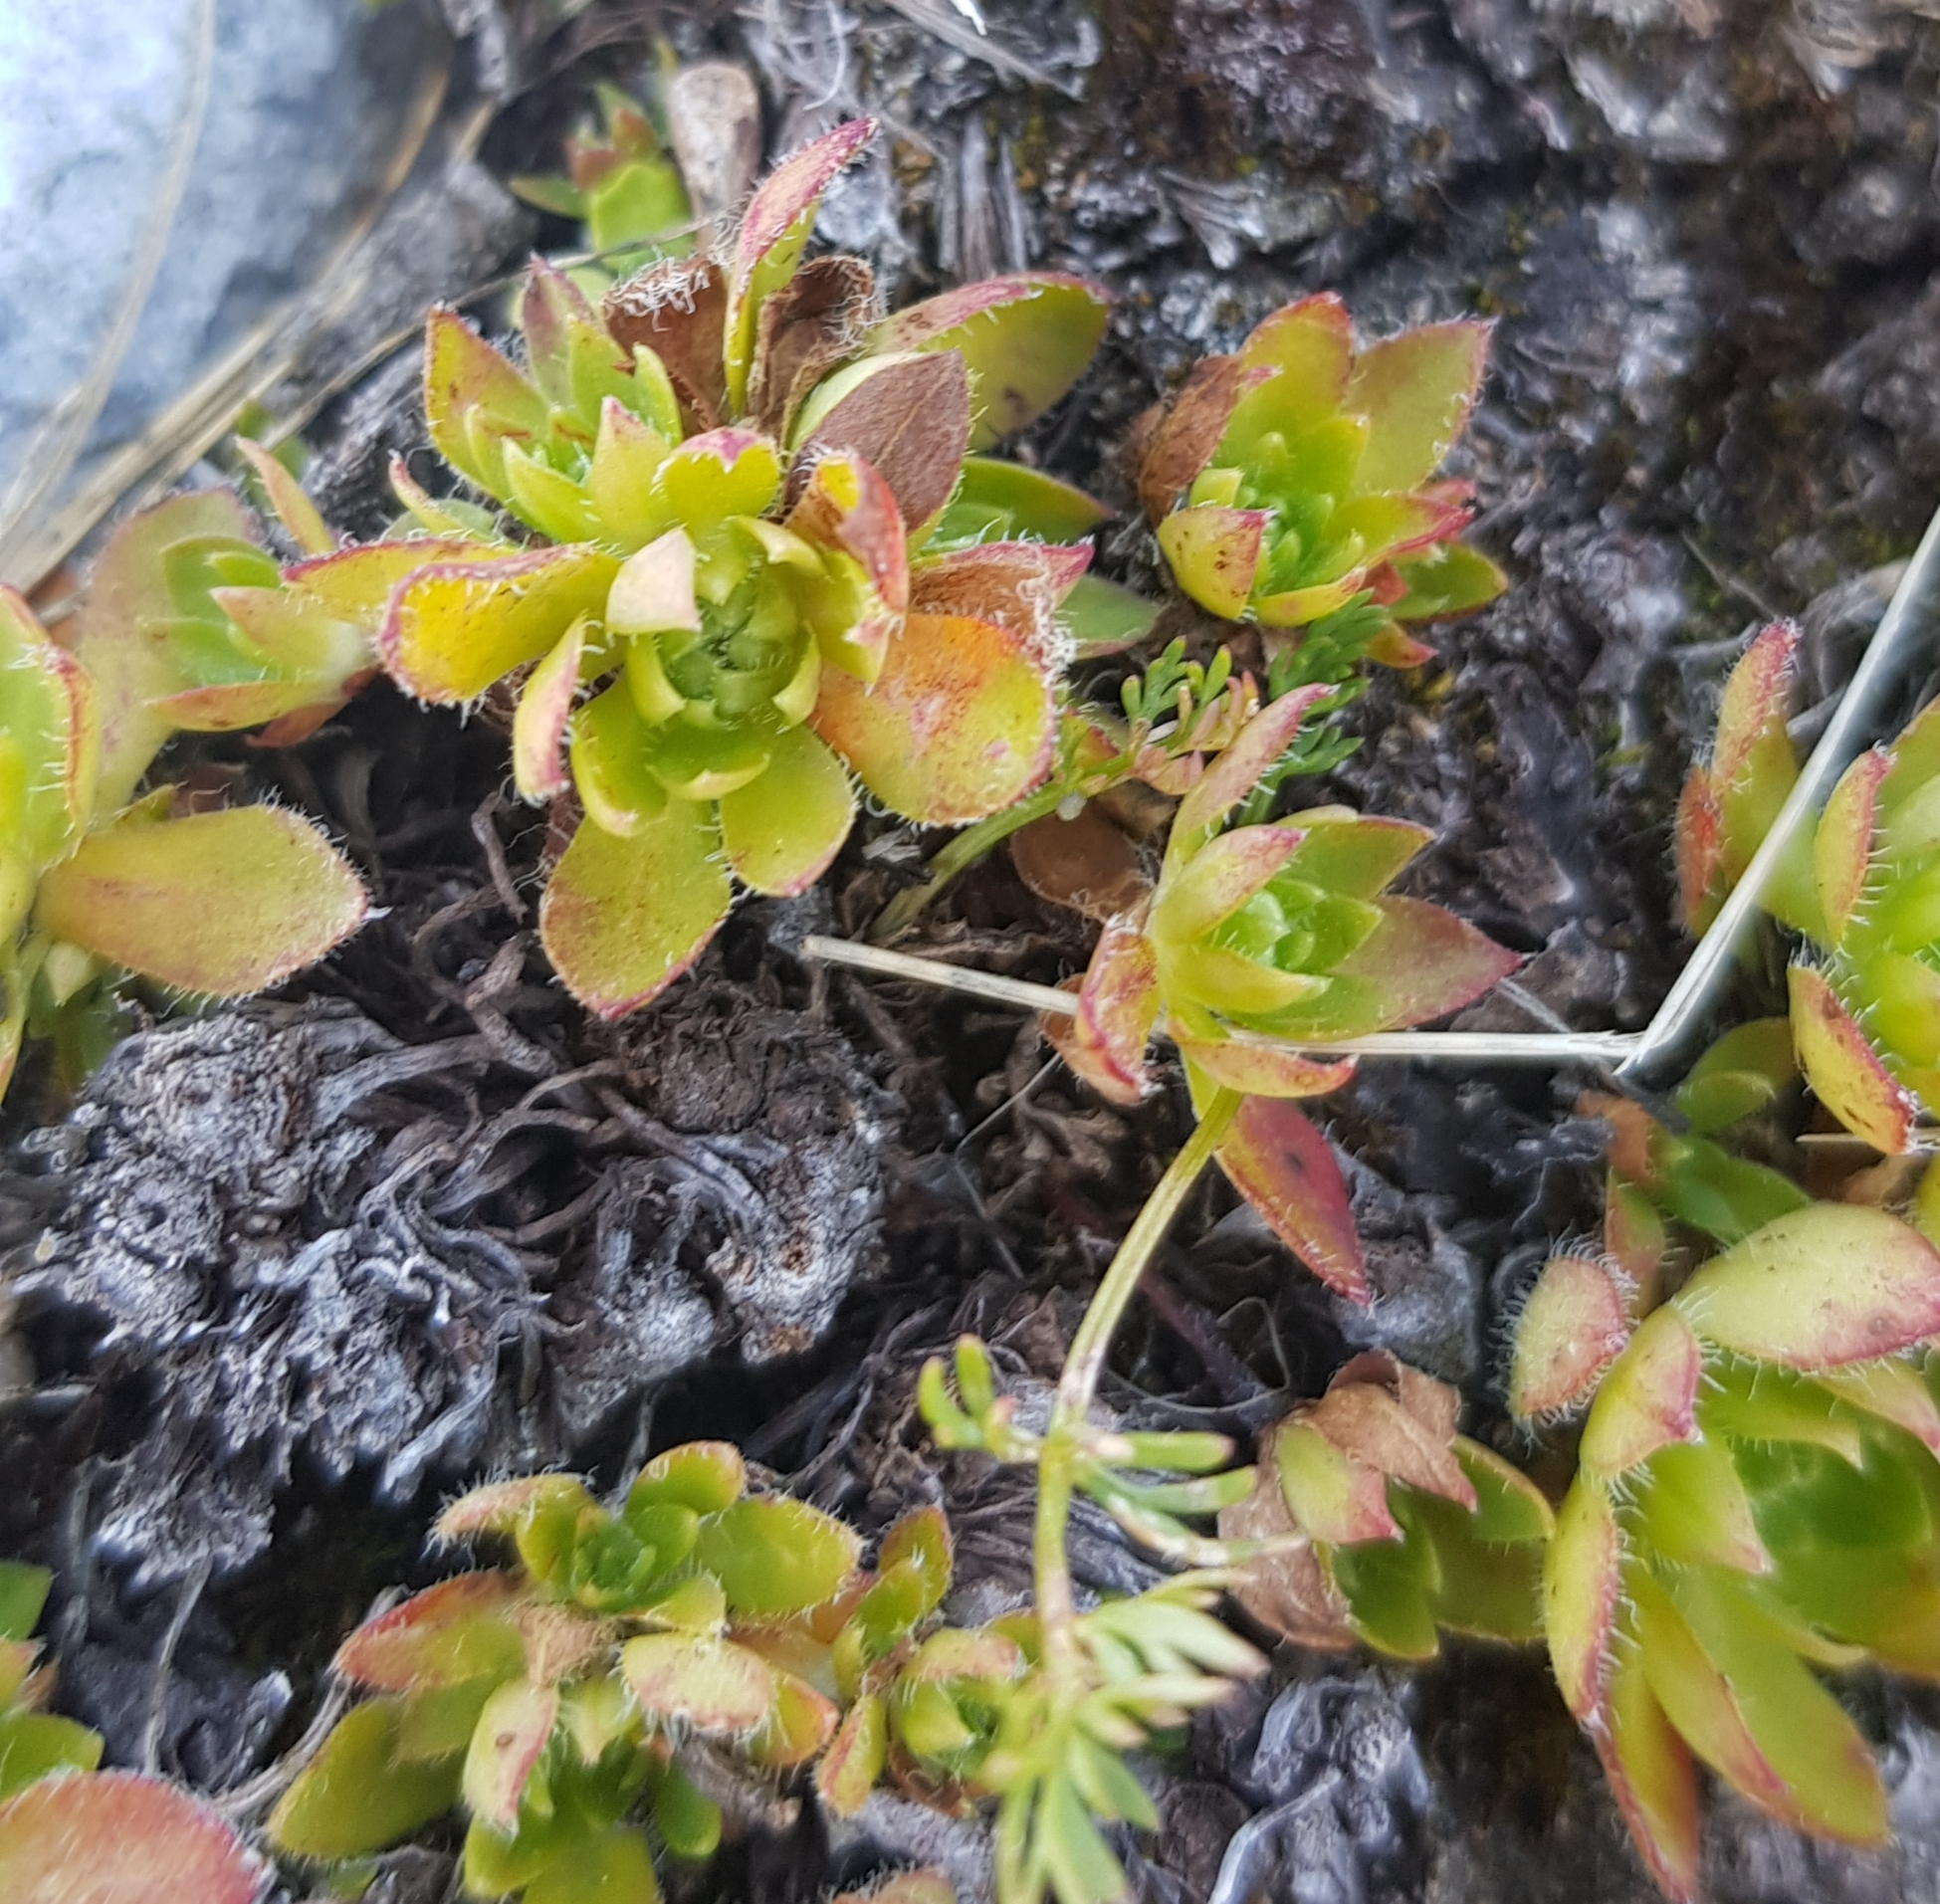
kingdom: Plantae
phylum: Tracheophyta
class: Magnoliopsida
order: Ericales
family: Primulaceae
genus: Androsace
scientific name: Androsace chamaejasme
